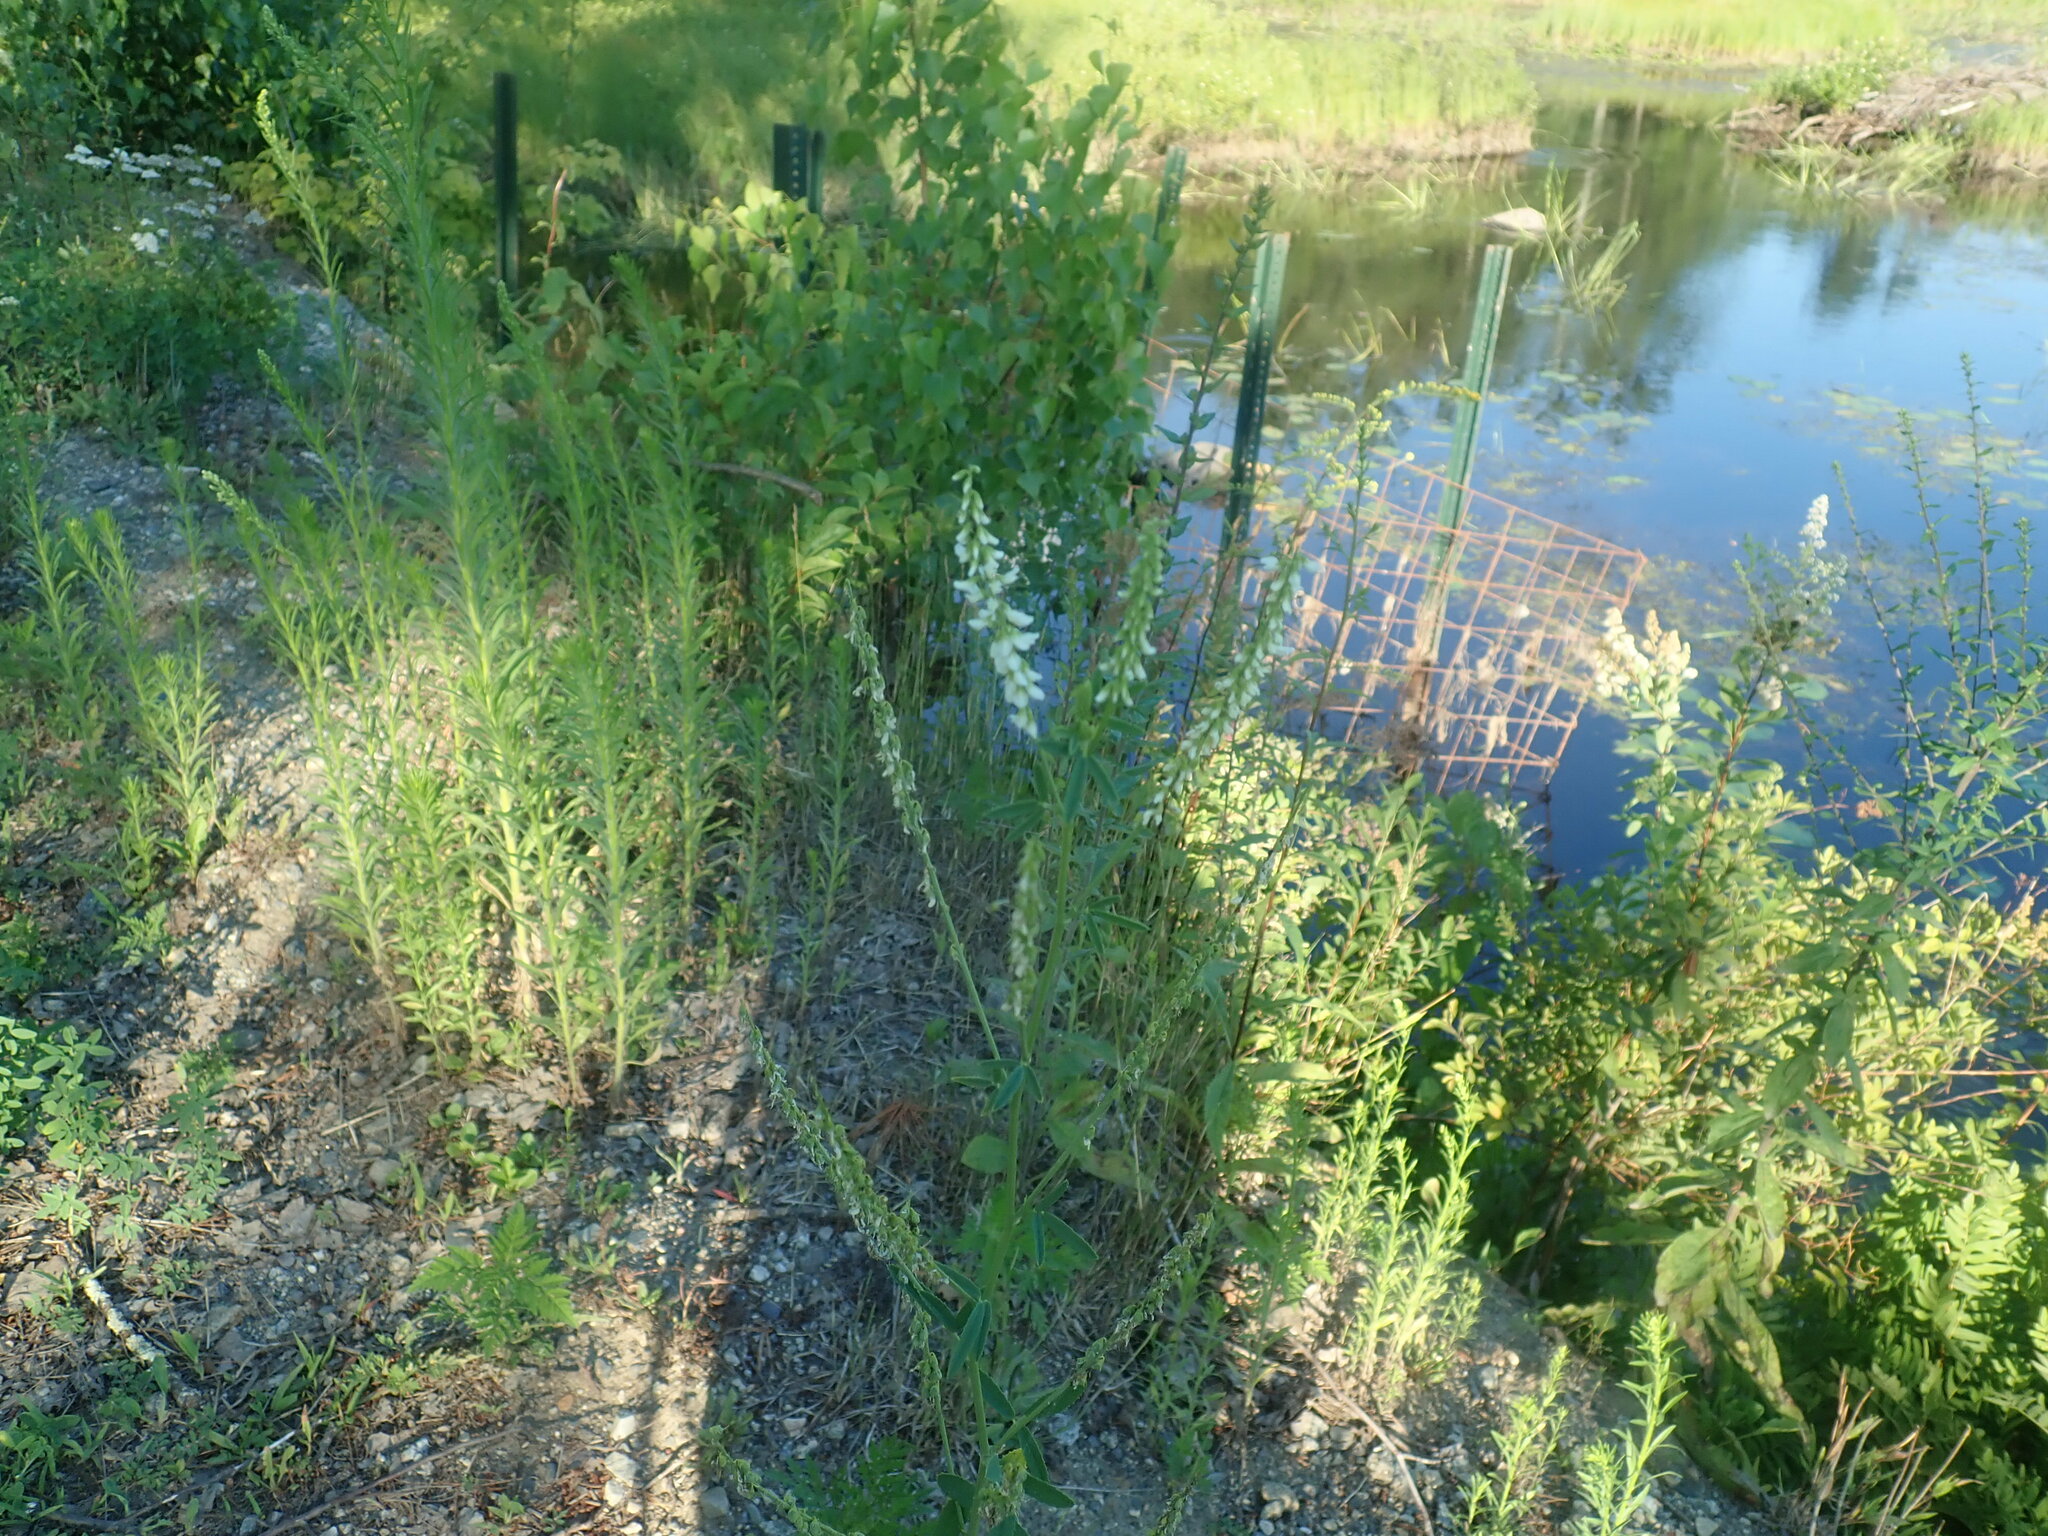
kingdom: Plantae
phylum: Tracheophyta
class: Magnoliopsida
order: Fabales
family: Fabaceae
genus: Melilotus
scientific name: Melilotus albus
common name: White melilot
